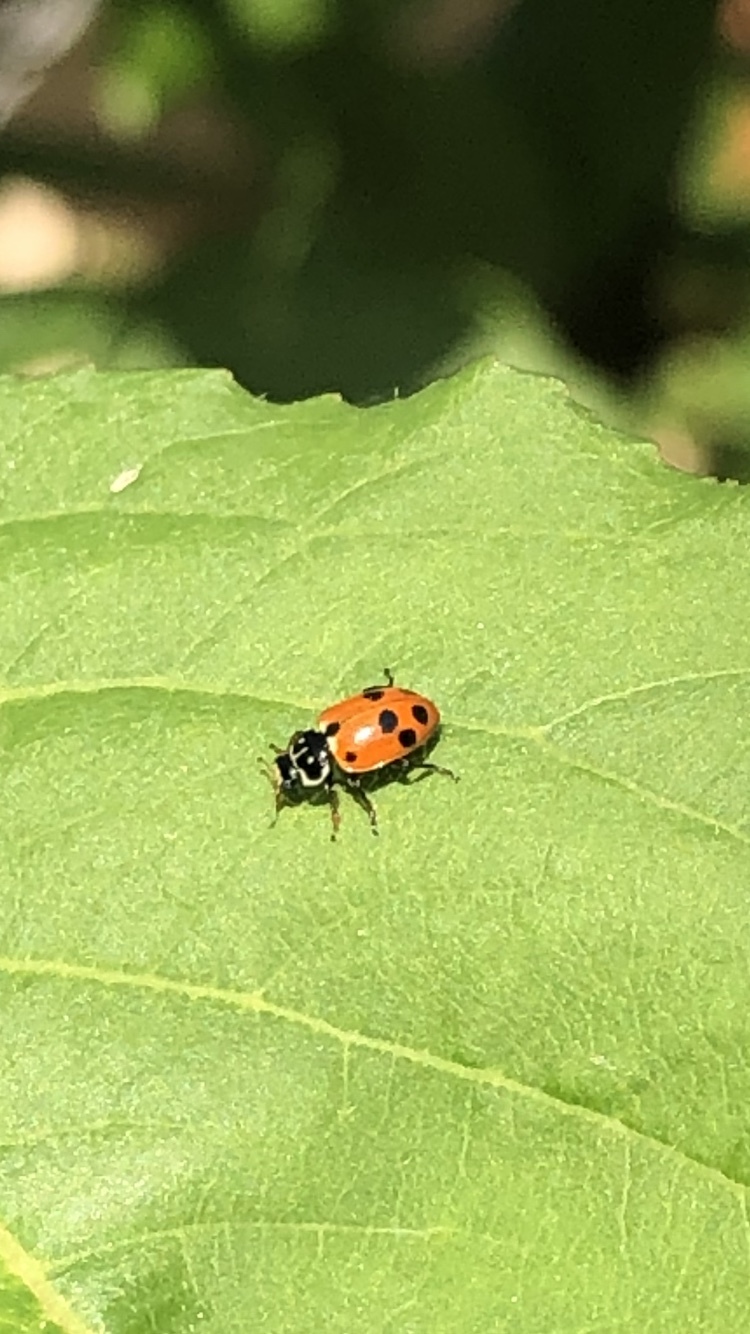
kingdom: Animalia
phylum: Arthropoda
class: Insecta
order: Coleoptera
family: Coccinellidae
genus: Hippodamia
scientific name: Hippodamia variegata
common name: Ladybird beetle
